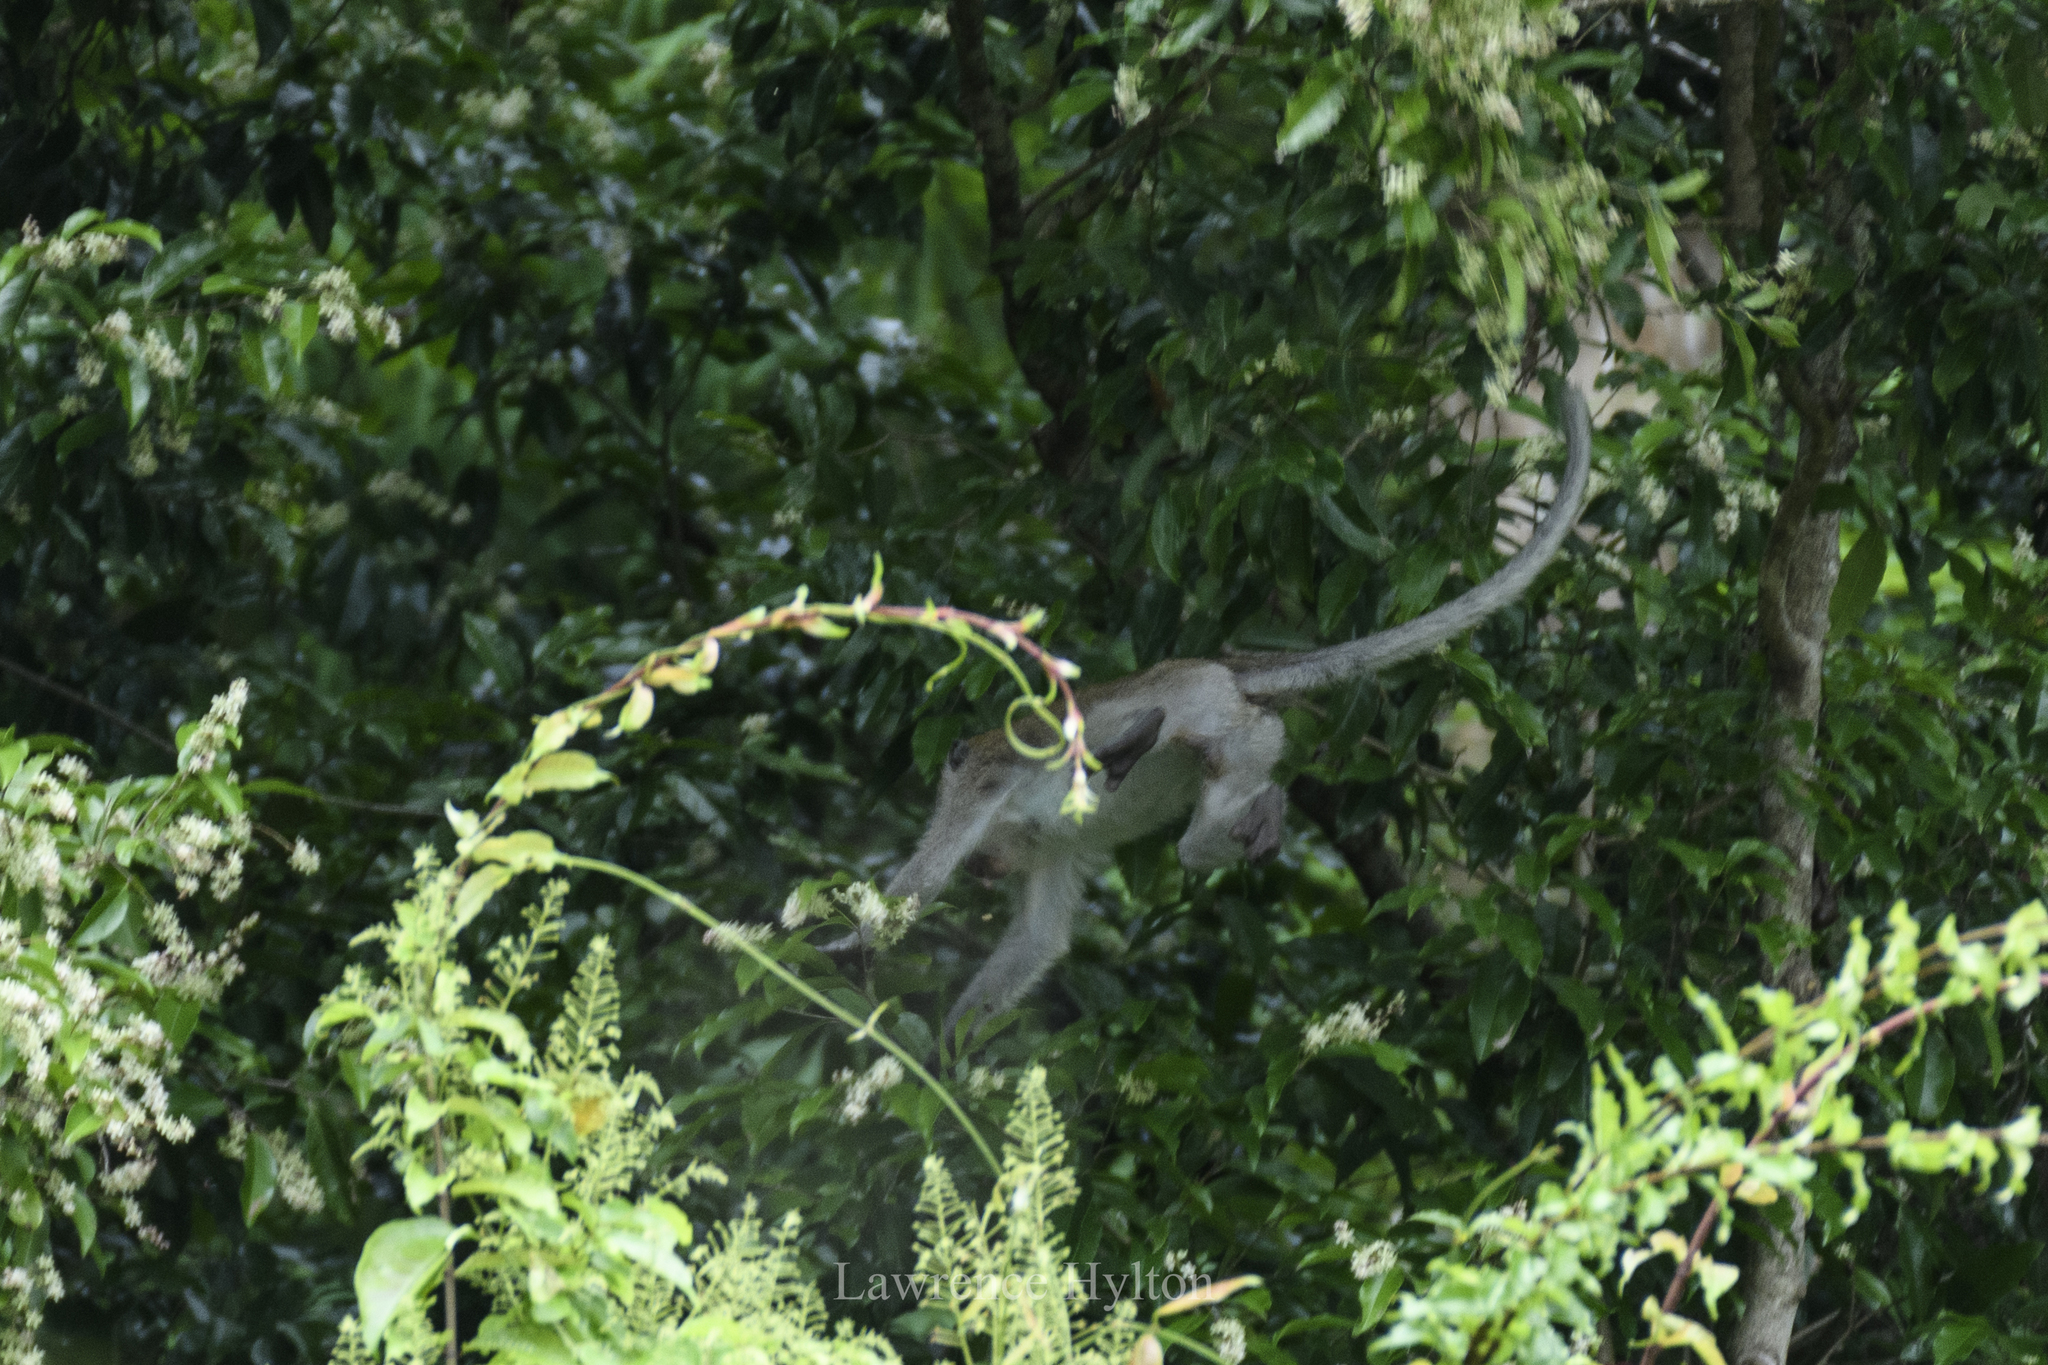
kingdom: Animalia
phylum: Chordata
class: Mammalia
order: Primates
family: Cercopithecidae
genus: Macaca
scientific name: Macaca fascicularis
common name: Crab-eating macaque
